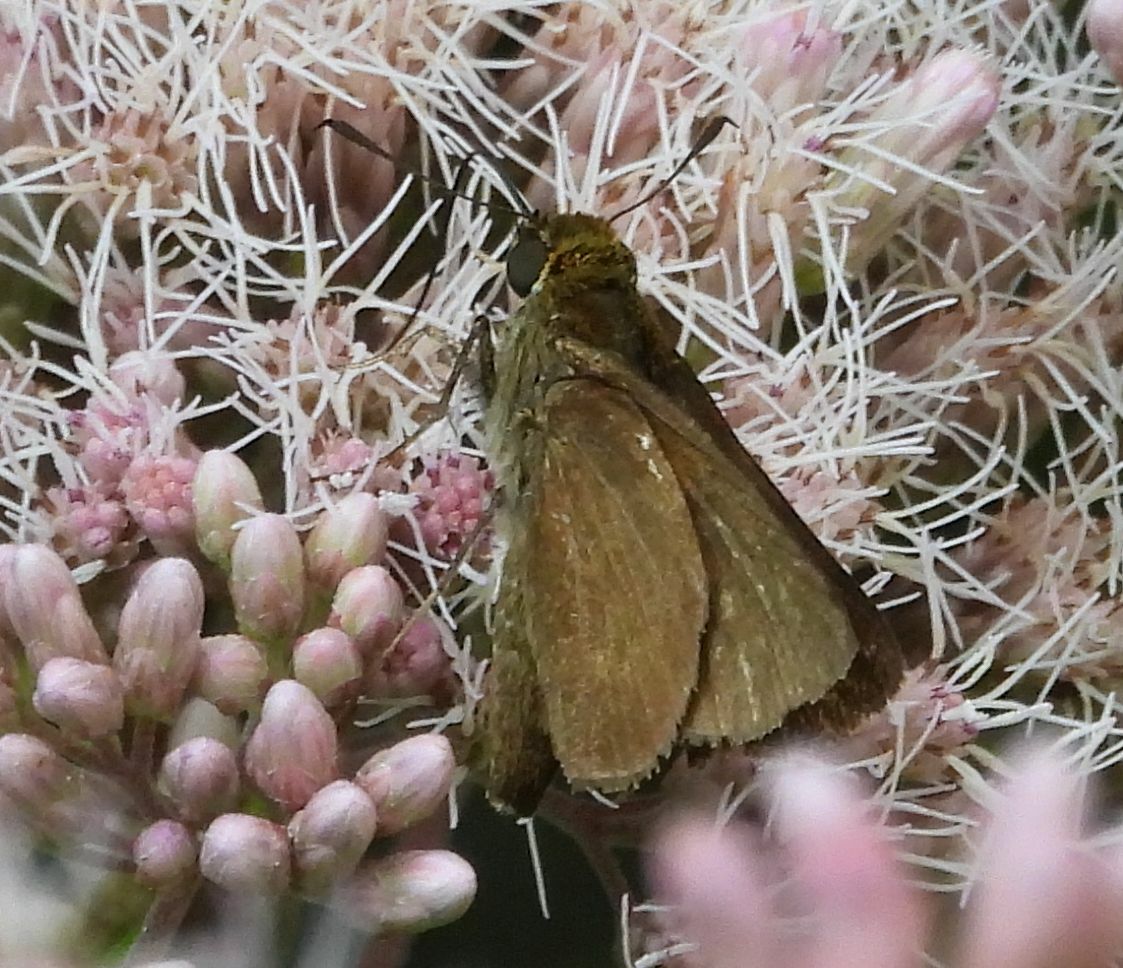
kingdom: Animalia
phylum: Arthropoda
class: Insecta
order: Lepidoptera
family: Hesperiidae
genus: Euphyes
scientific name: Euphyes vestris
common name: Dun skipper
